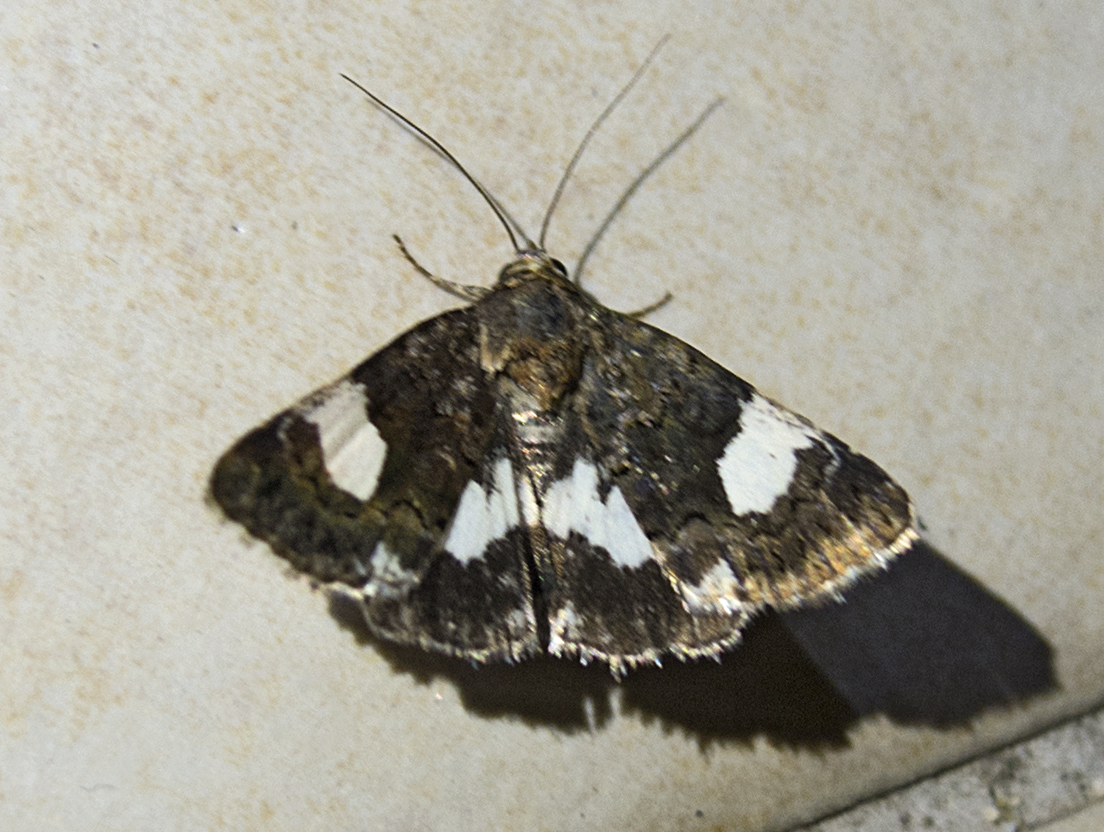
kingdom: Animalia
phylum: Arthropoda
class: Insecta
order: Lepidoptera
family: Erebidae
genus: Tyta
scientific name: Tyta luctuosa
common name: Four-spotted
